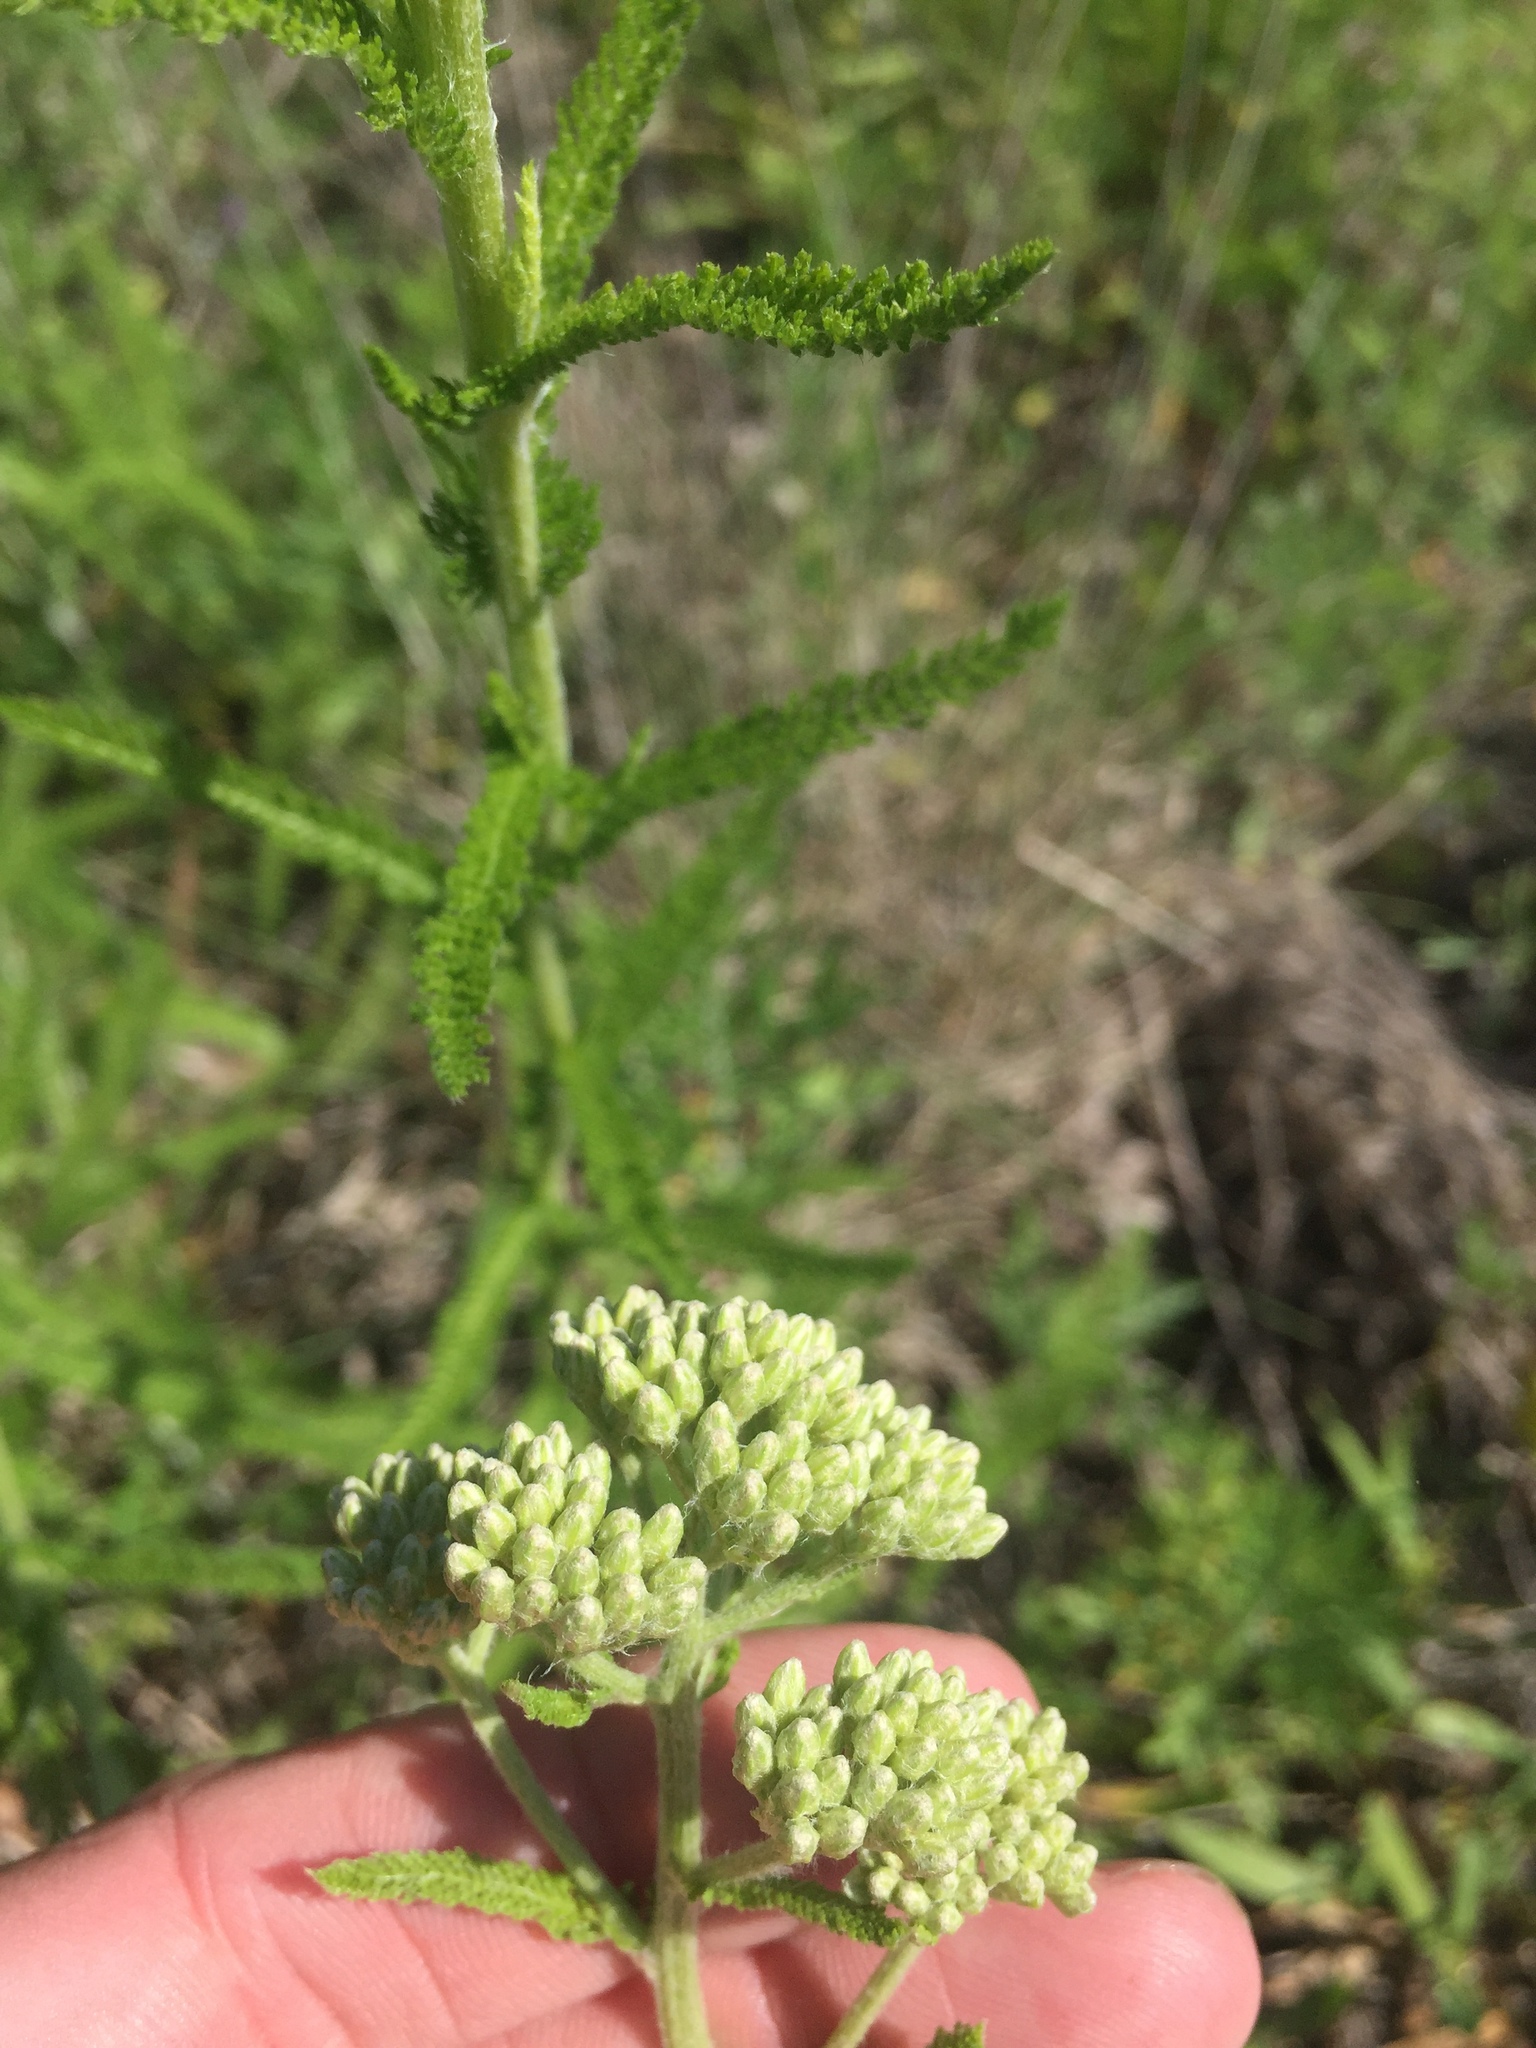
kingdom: Plantae
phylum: Tracheophyta
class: Magnoliopsida
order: Asterales
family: Asteraceae
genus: Achillea
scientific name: Achillea millefolium
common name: Yarrow
